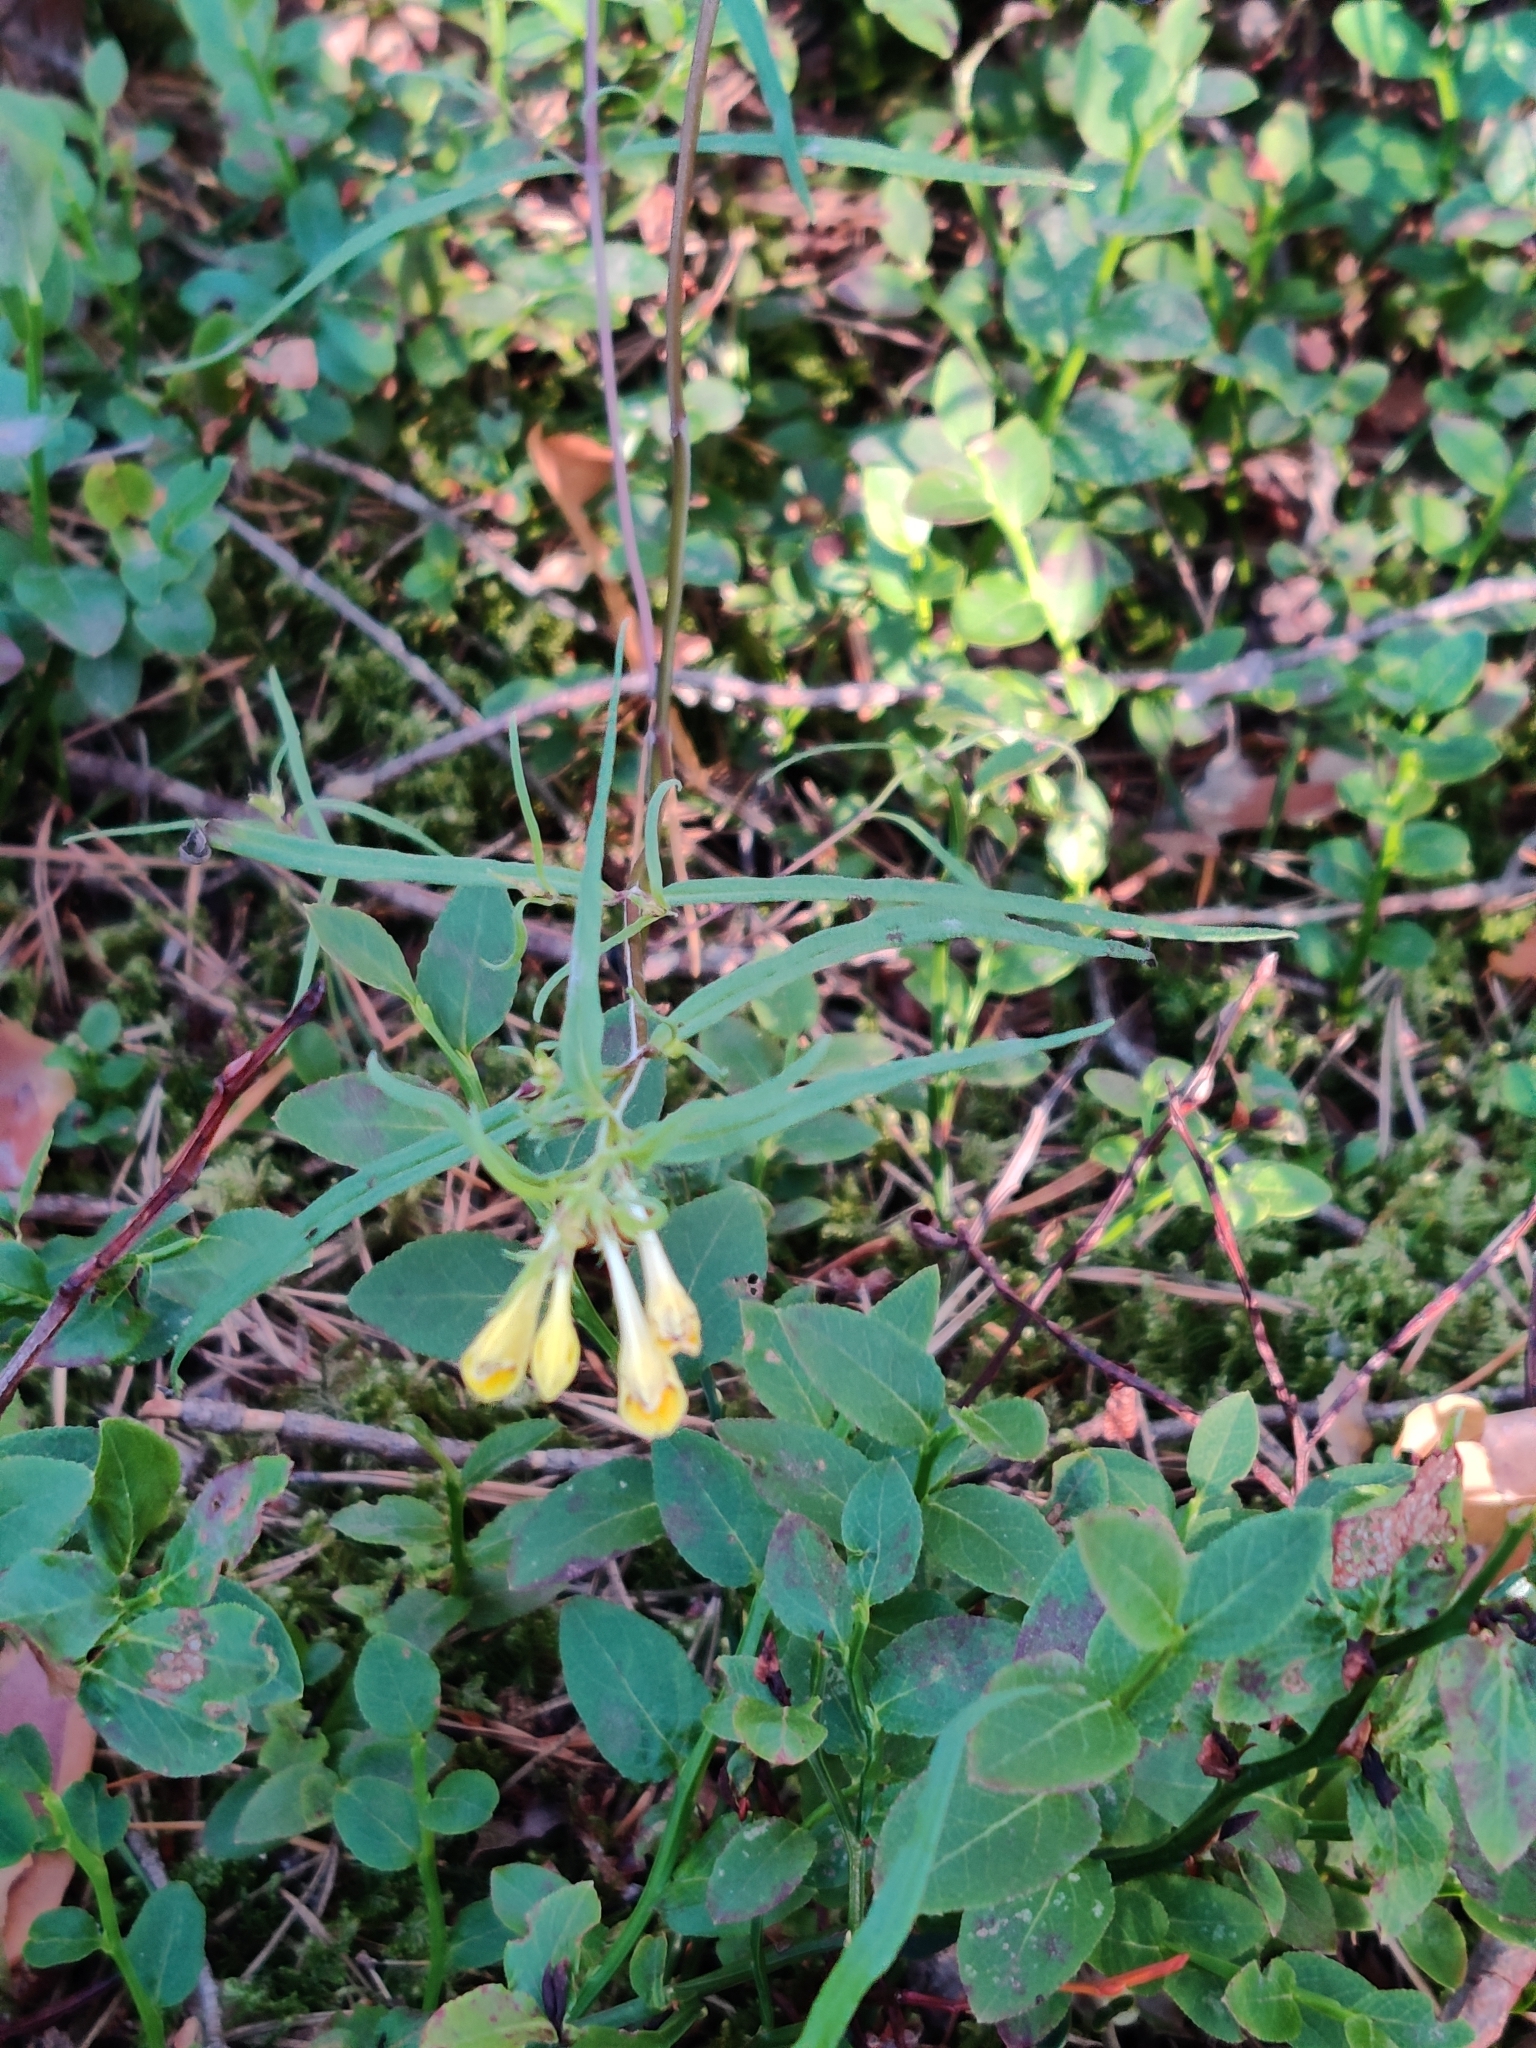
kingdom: Plantae
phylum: Tracheophyta
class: Magnoliopsida
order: Lamiales
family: Orobanchaceae
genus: Melampyrum
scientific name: Melampyrum pratense
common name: Common cow-wheat
